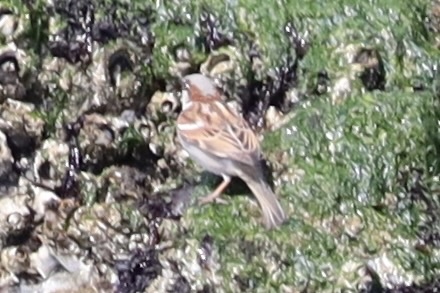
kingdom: Animalia
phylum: Chordata
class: Aves
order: Passeriformes
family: Passeridae
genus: Passer
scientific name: Passer domesticus
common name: House sparrow
